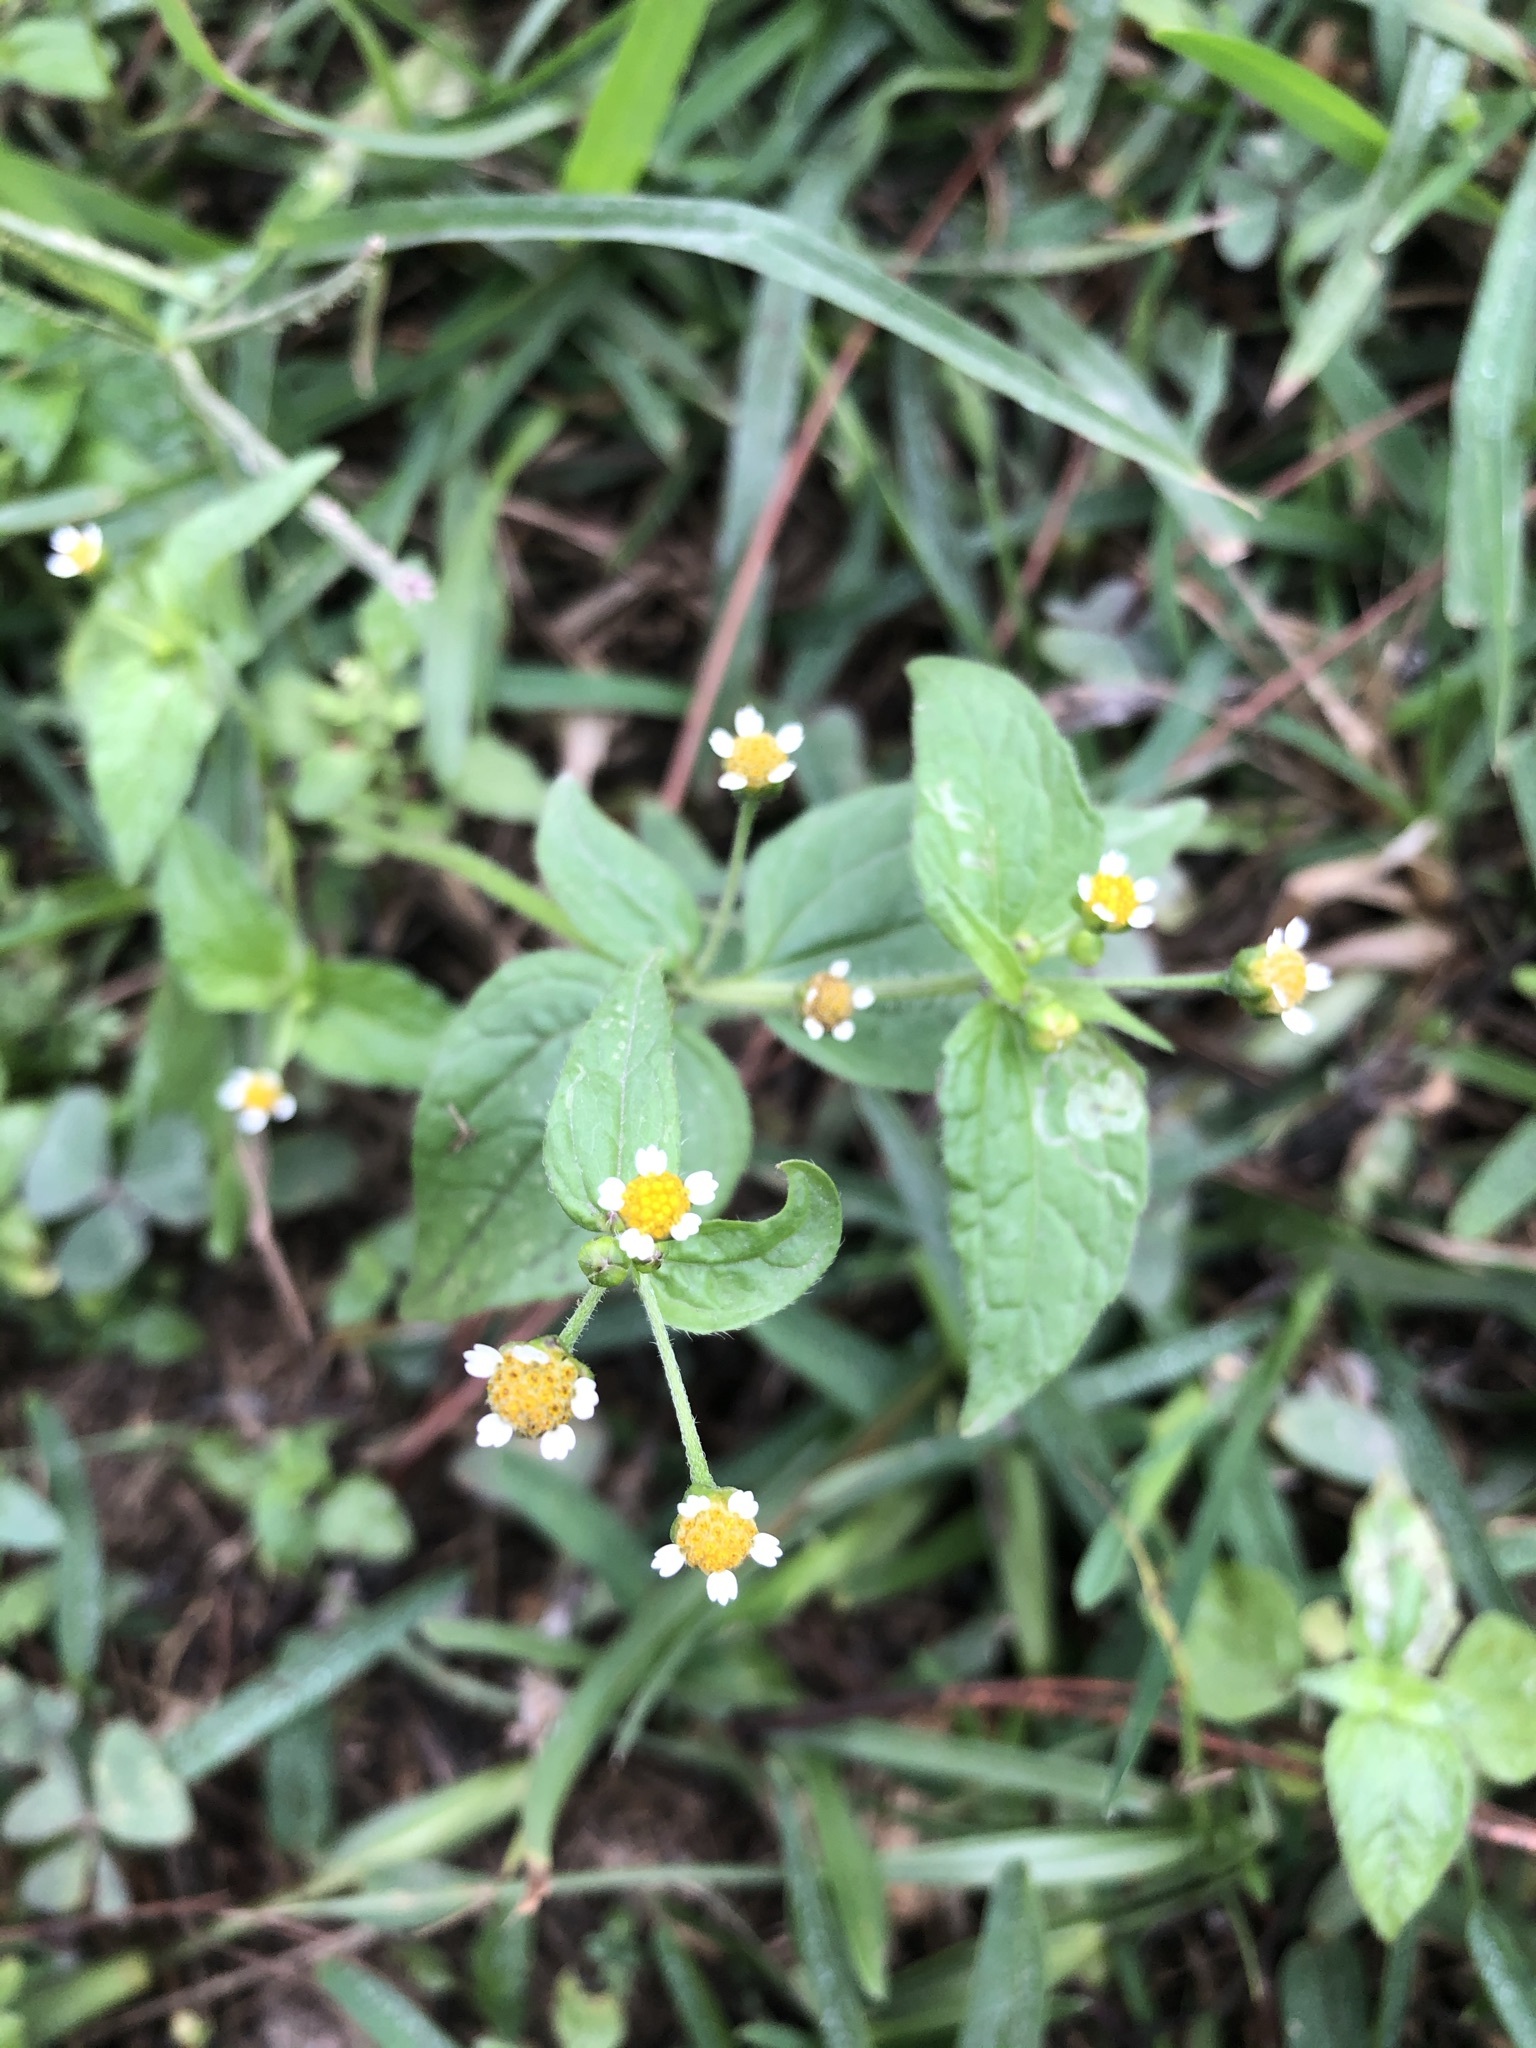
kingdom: Plantae
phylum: Tracheophyta
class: Magnoliopsida
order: Asterales
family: Asteraceae
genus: Galinsoga
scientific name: Galinsoga quadriradiata
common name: Shaggy soldier
